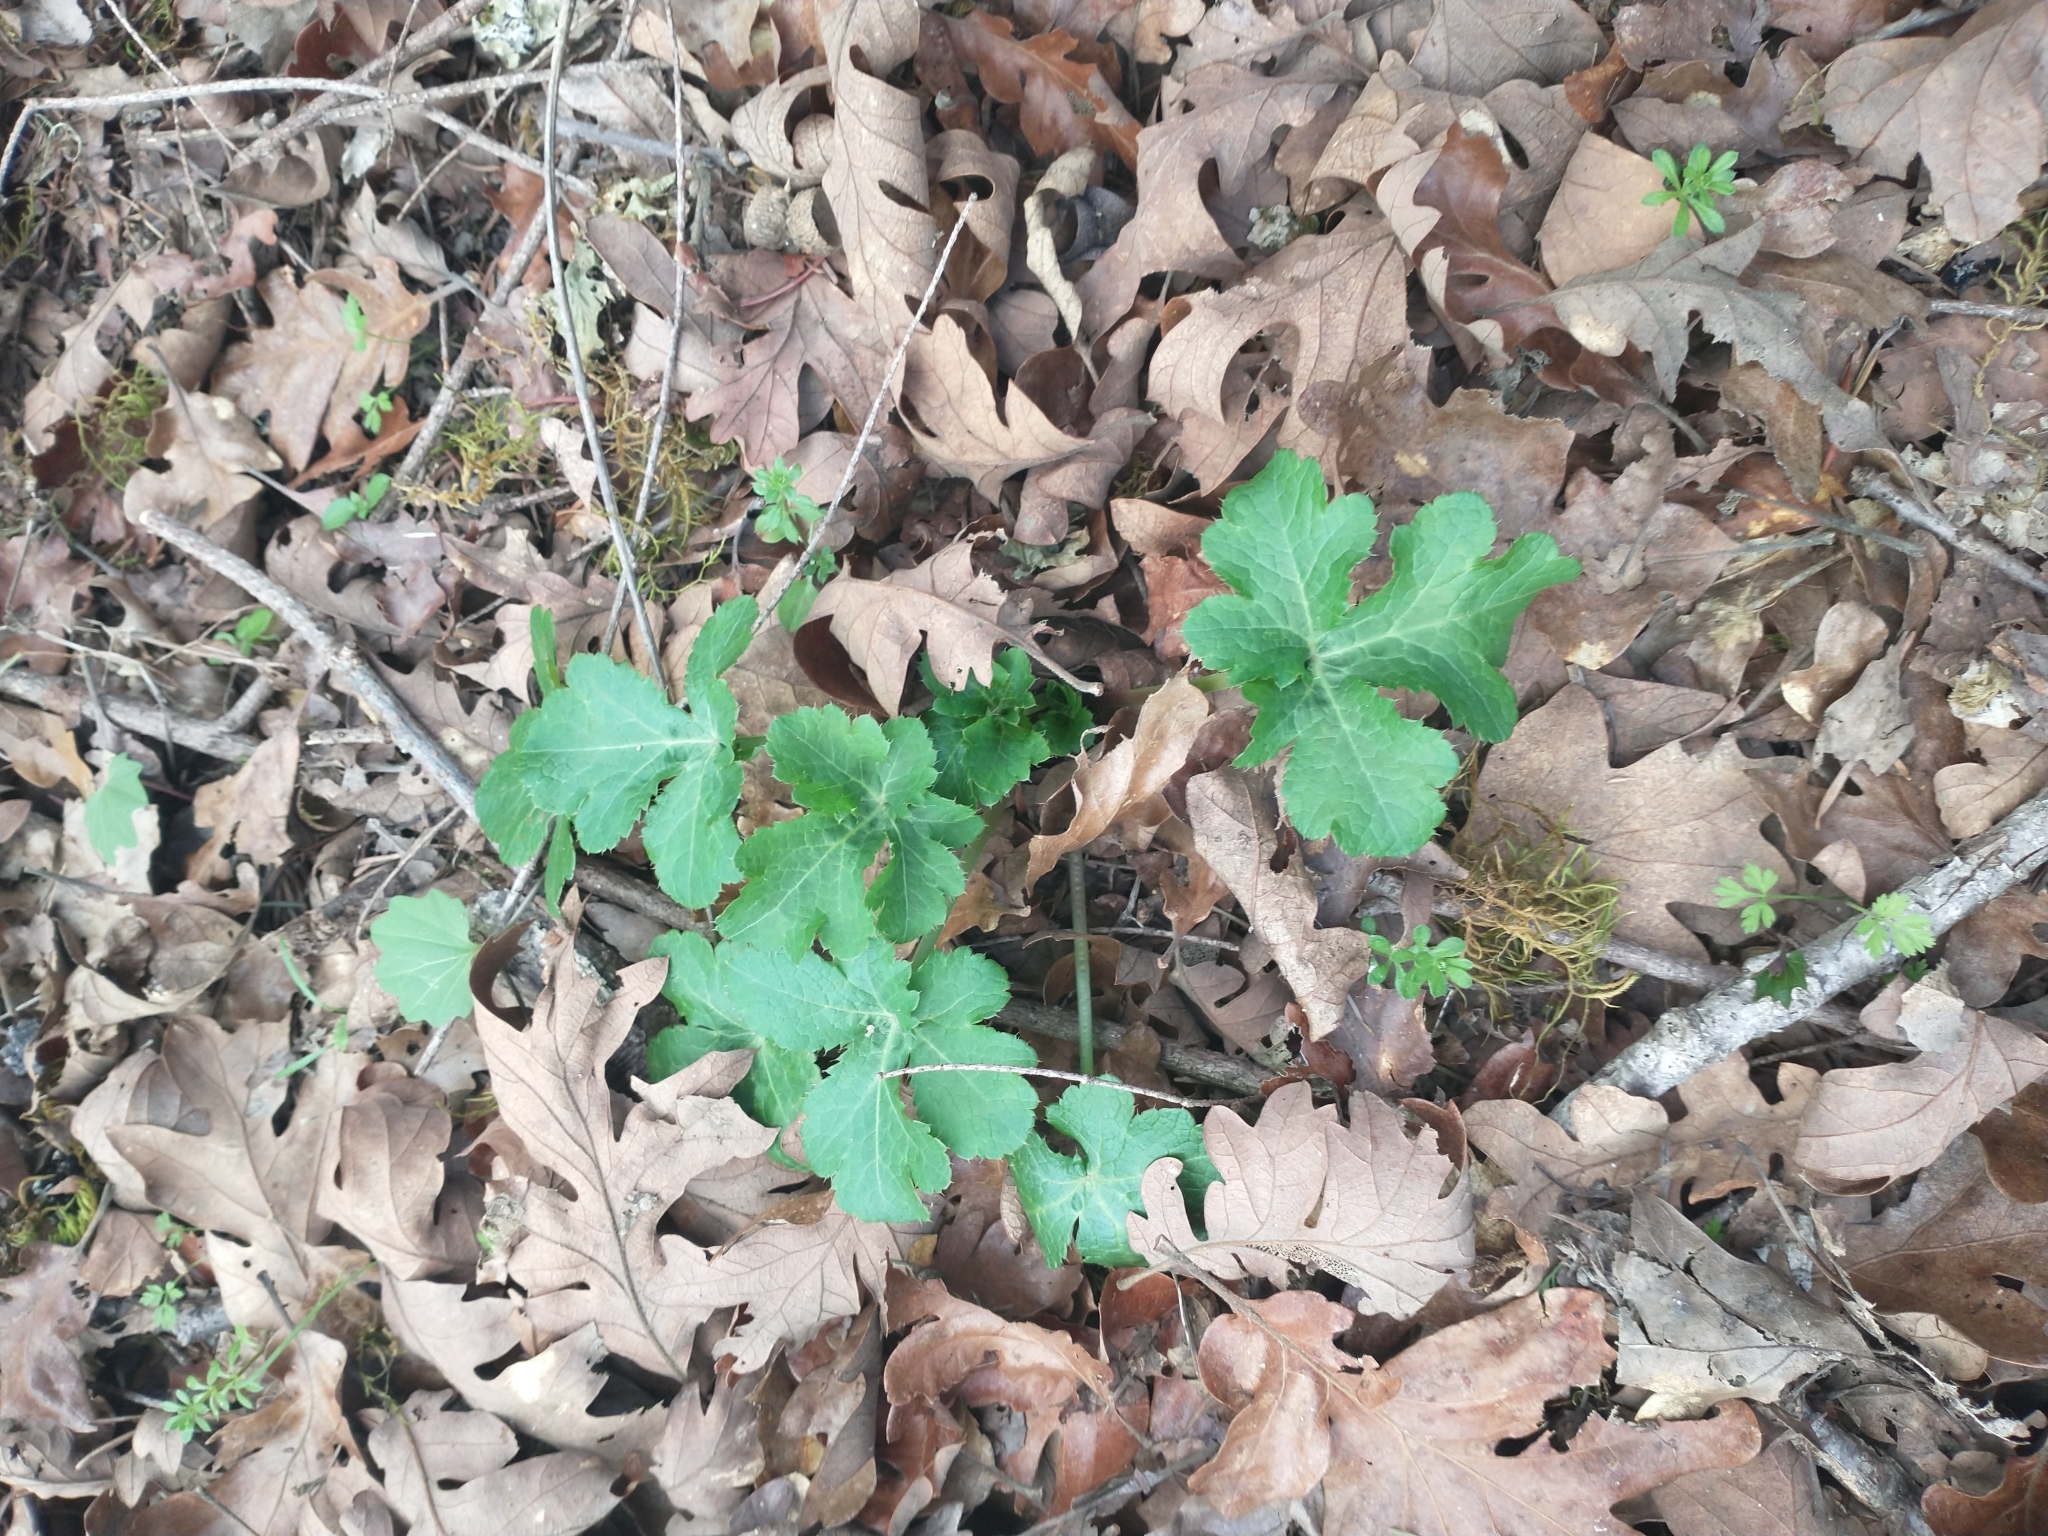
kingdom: Plantae
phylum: Tracheophyta
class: Magnoliopsida
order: Apiales
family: Apiaceae
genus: Sanicula
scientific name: Sanicula crassicaulis
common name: Western snakeroot
